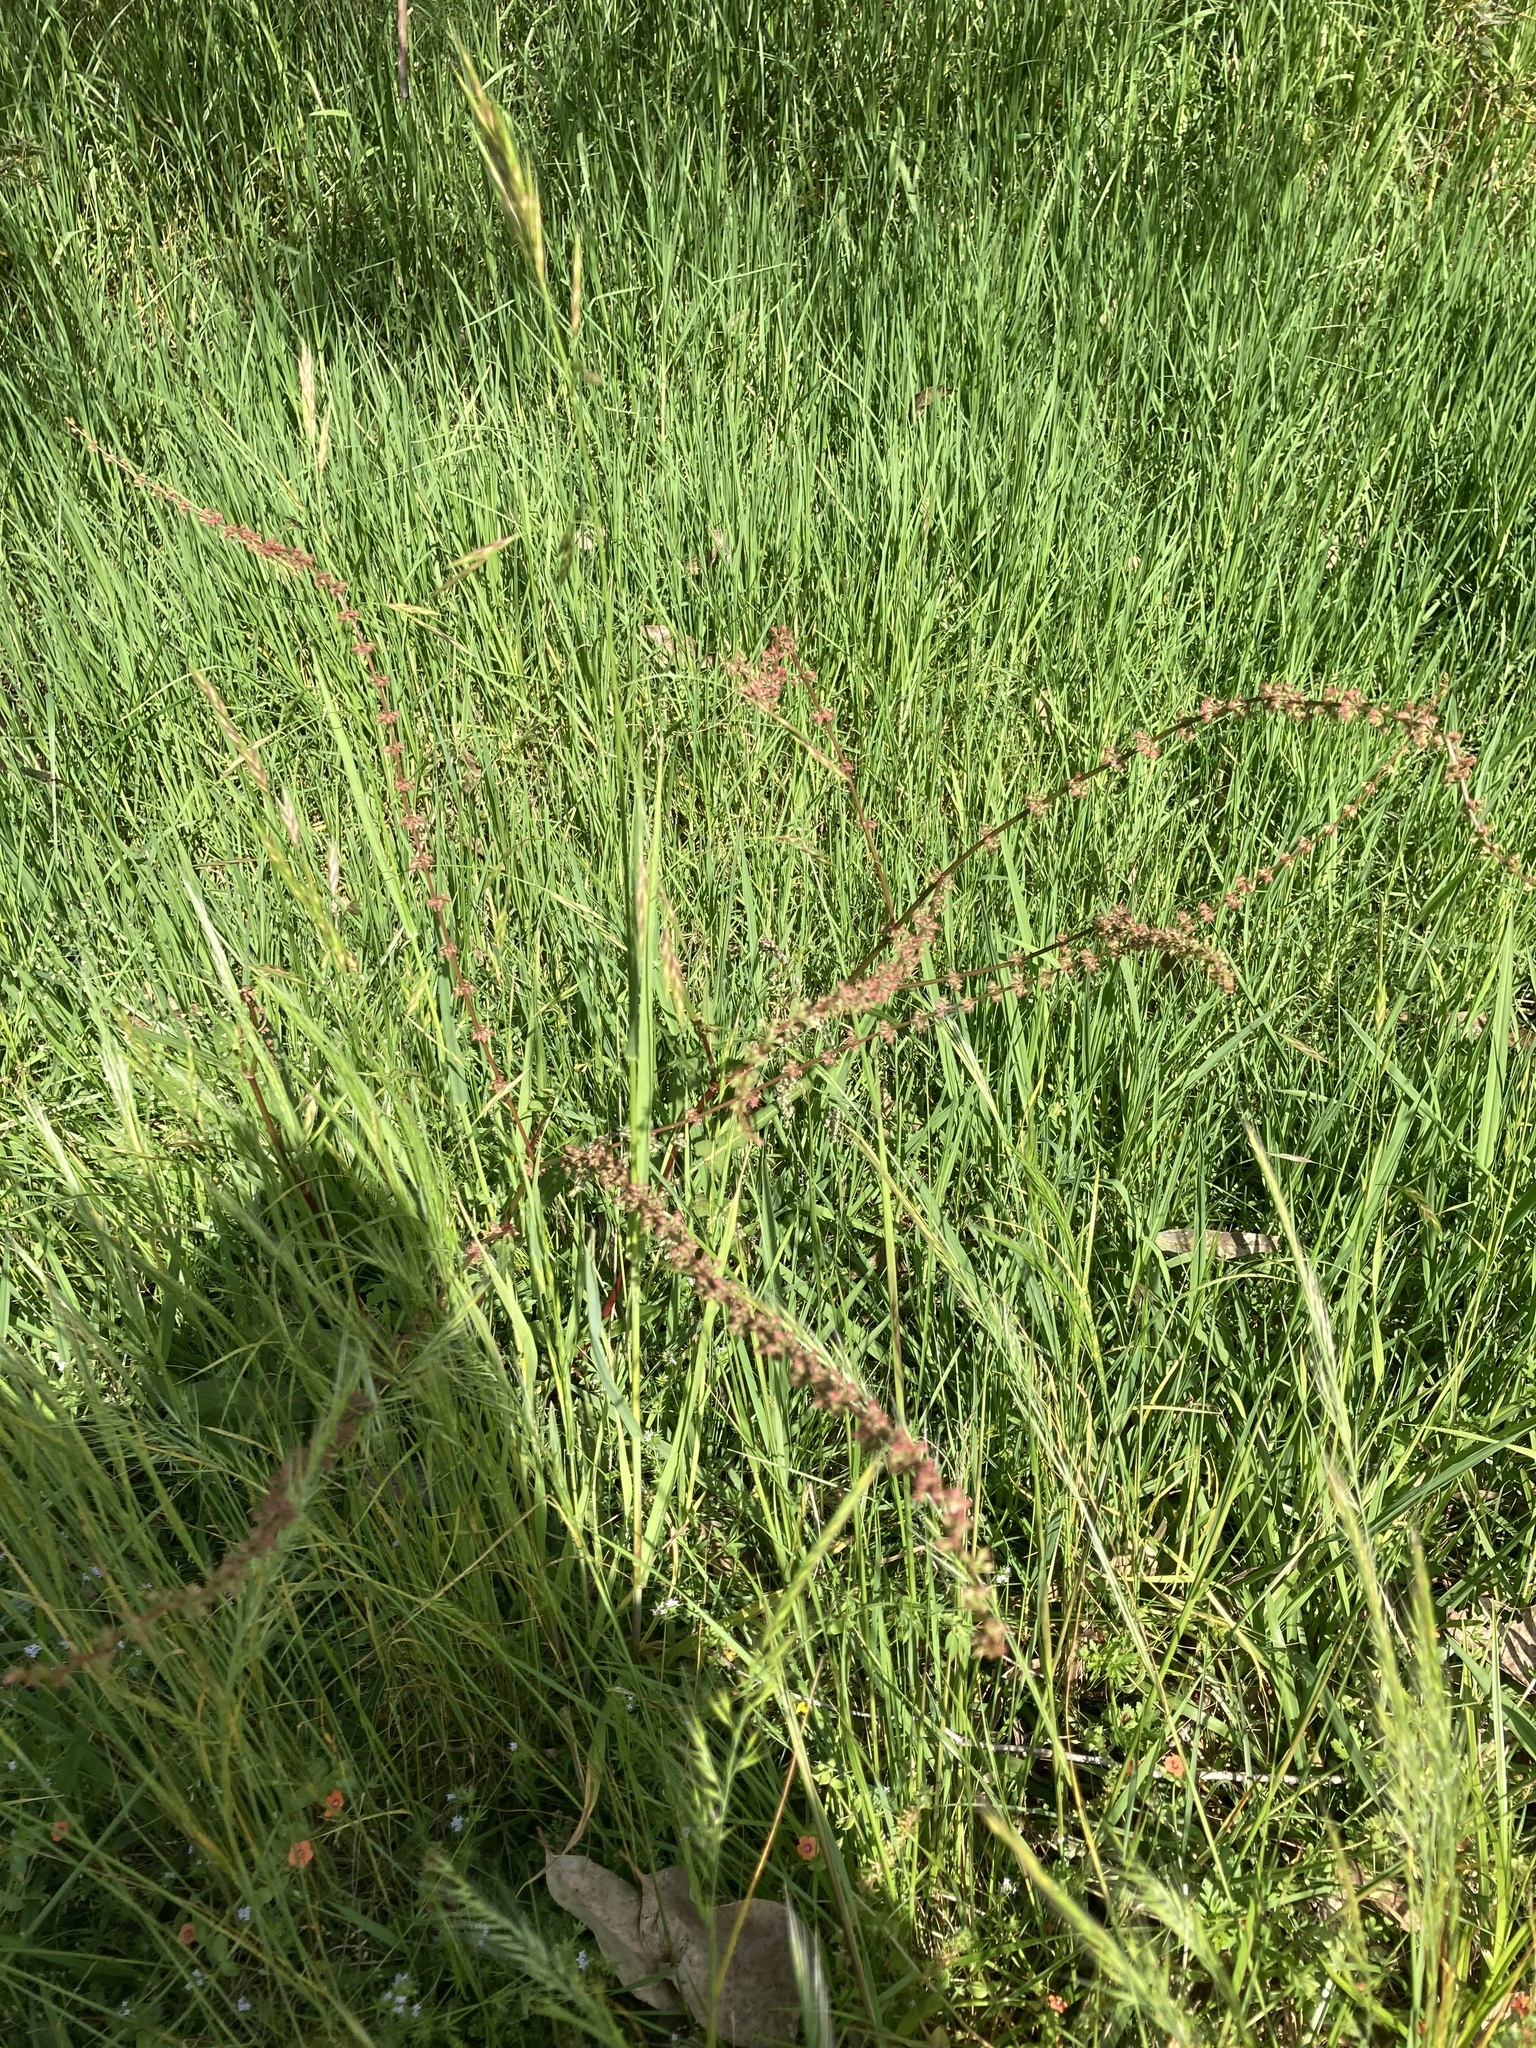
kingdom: Plantae
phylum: Tracheophyta
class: Magnoliopsida
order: Caryophyllales
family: Polygonaceae
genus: Rumex
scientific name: Rumex brownii
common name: Hooked dock
